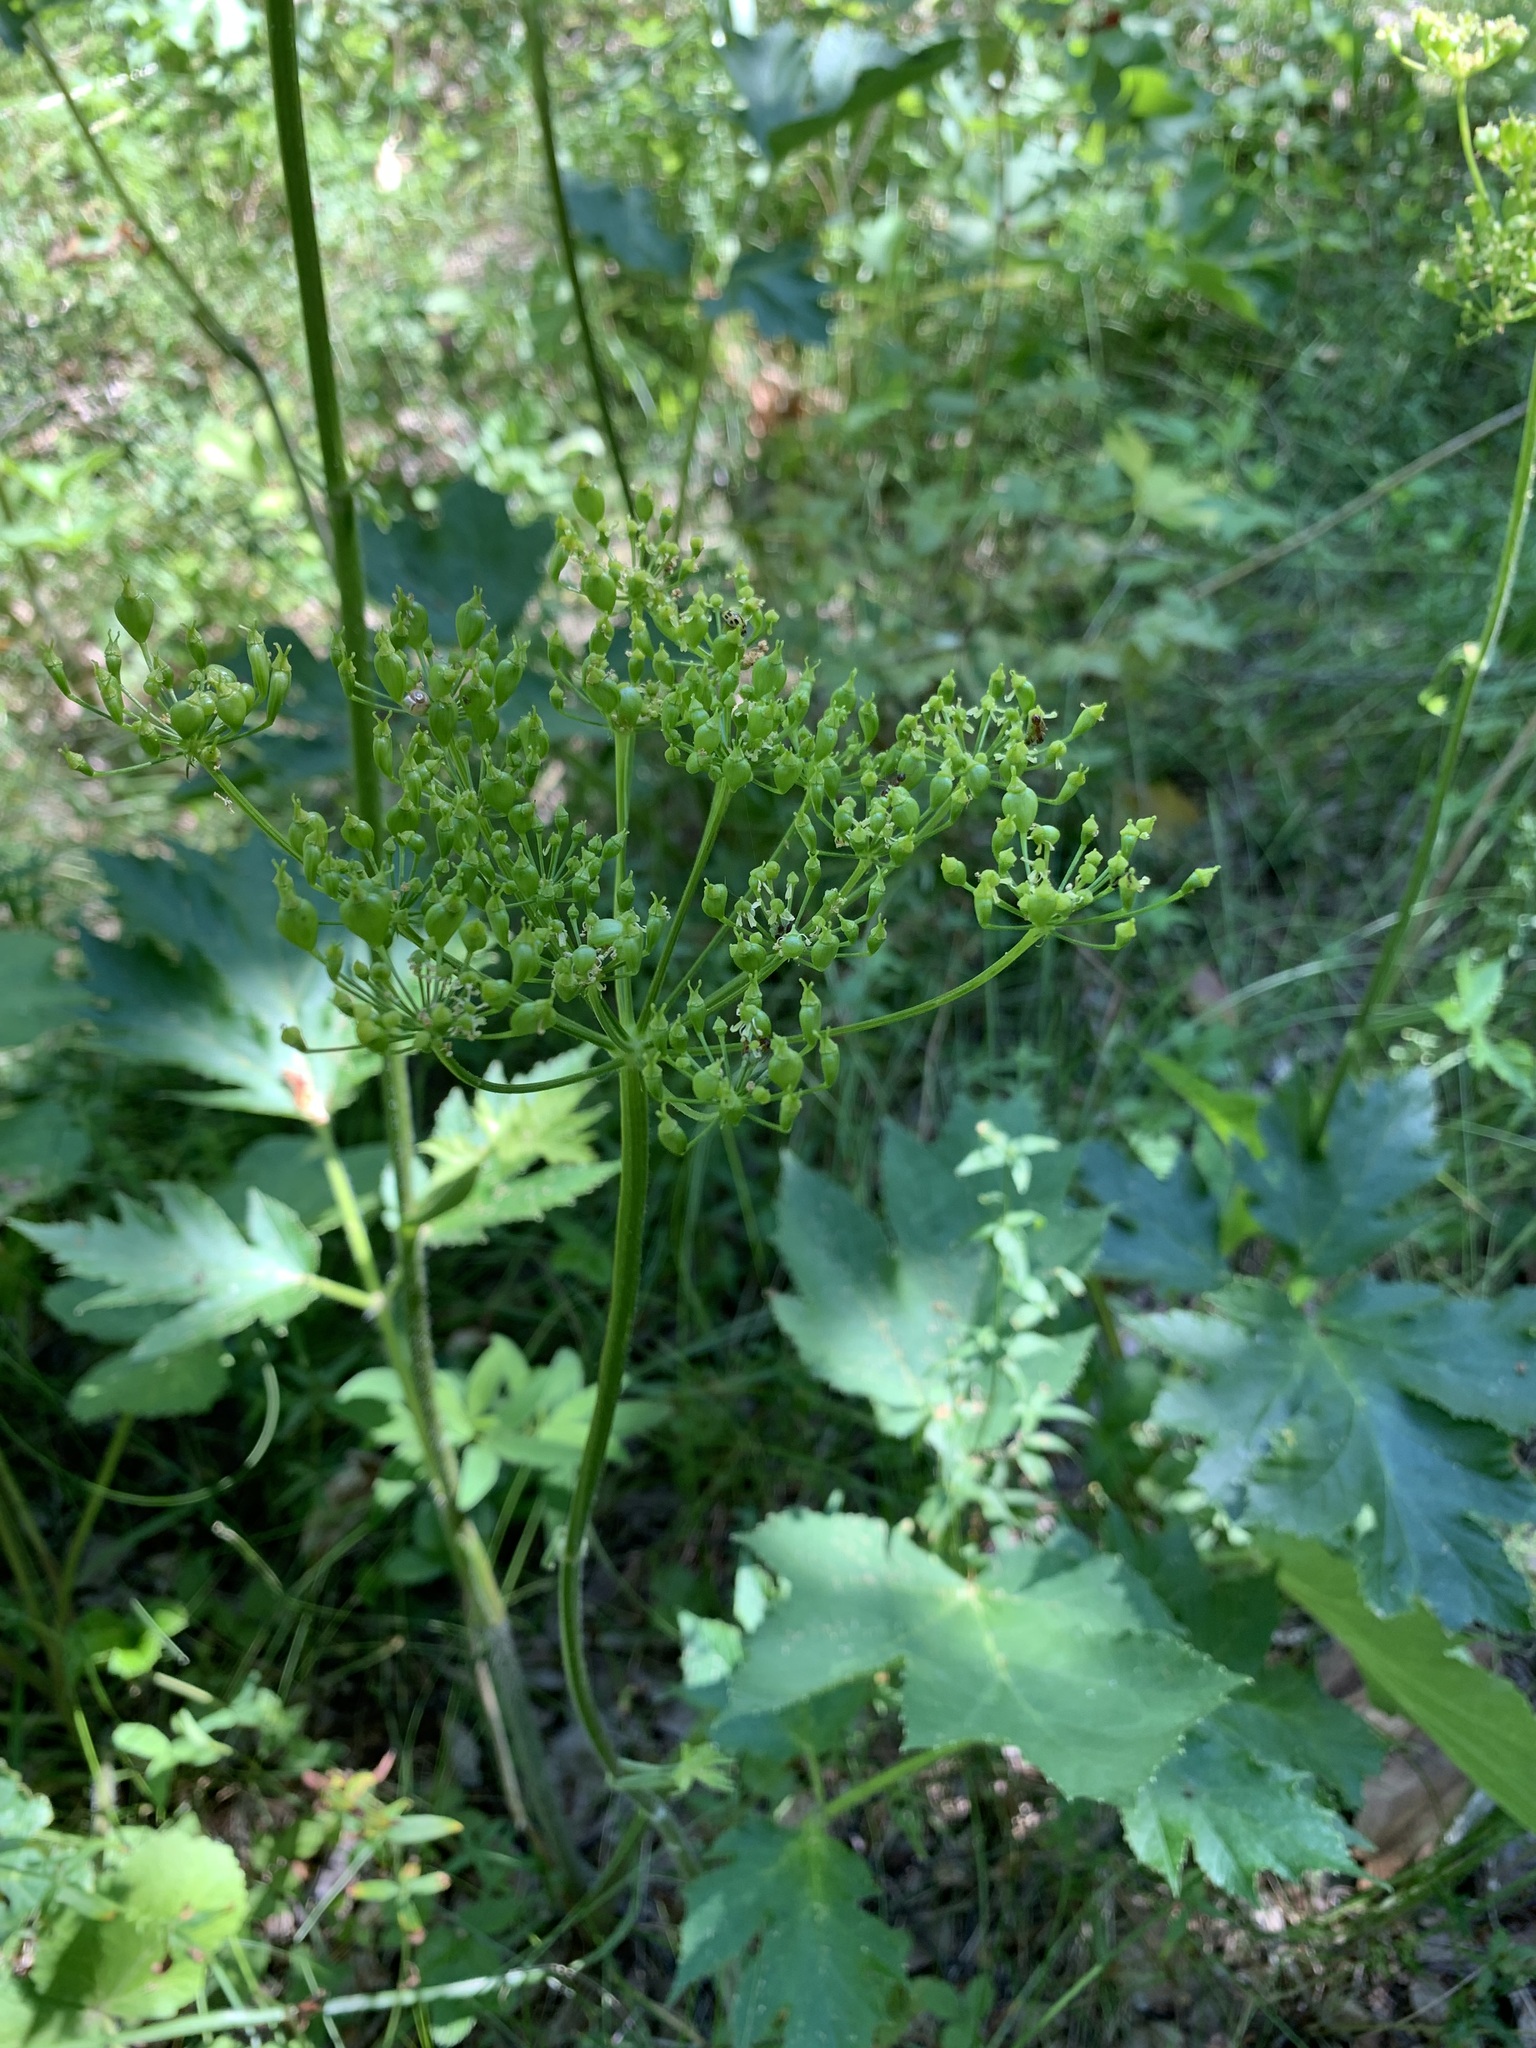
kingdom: Plantae
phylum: Tracheophyta
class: Magnoliopsida
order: Apiales
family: Apiaceae
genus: Heracleum
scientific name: Heracleum sphondylium
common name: Hogweed
